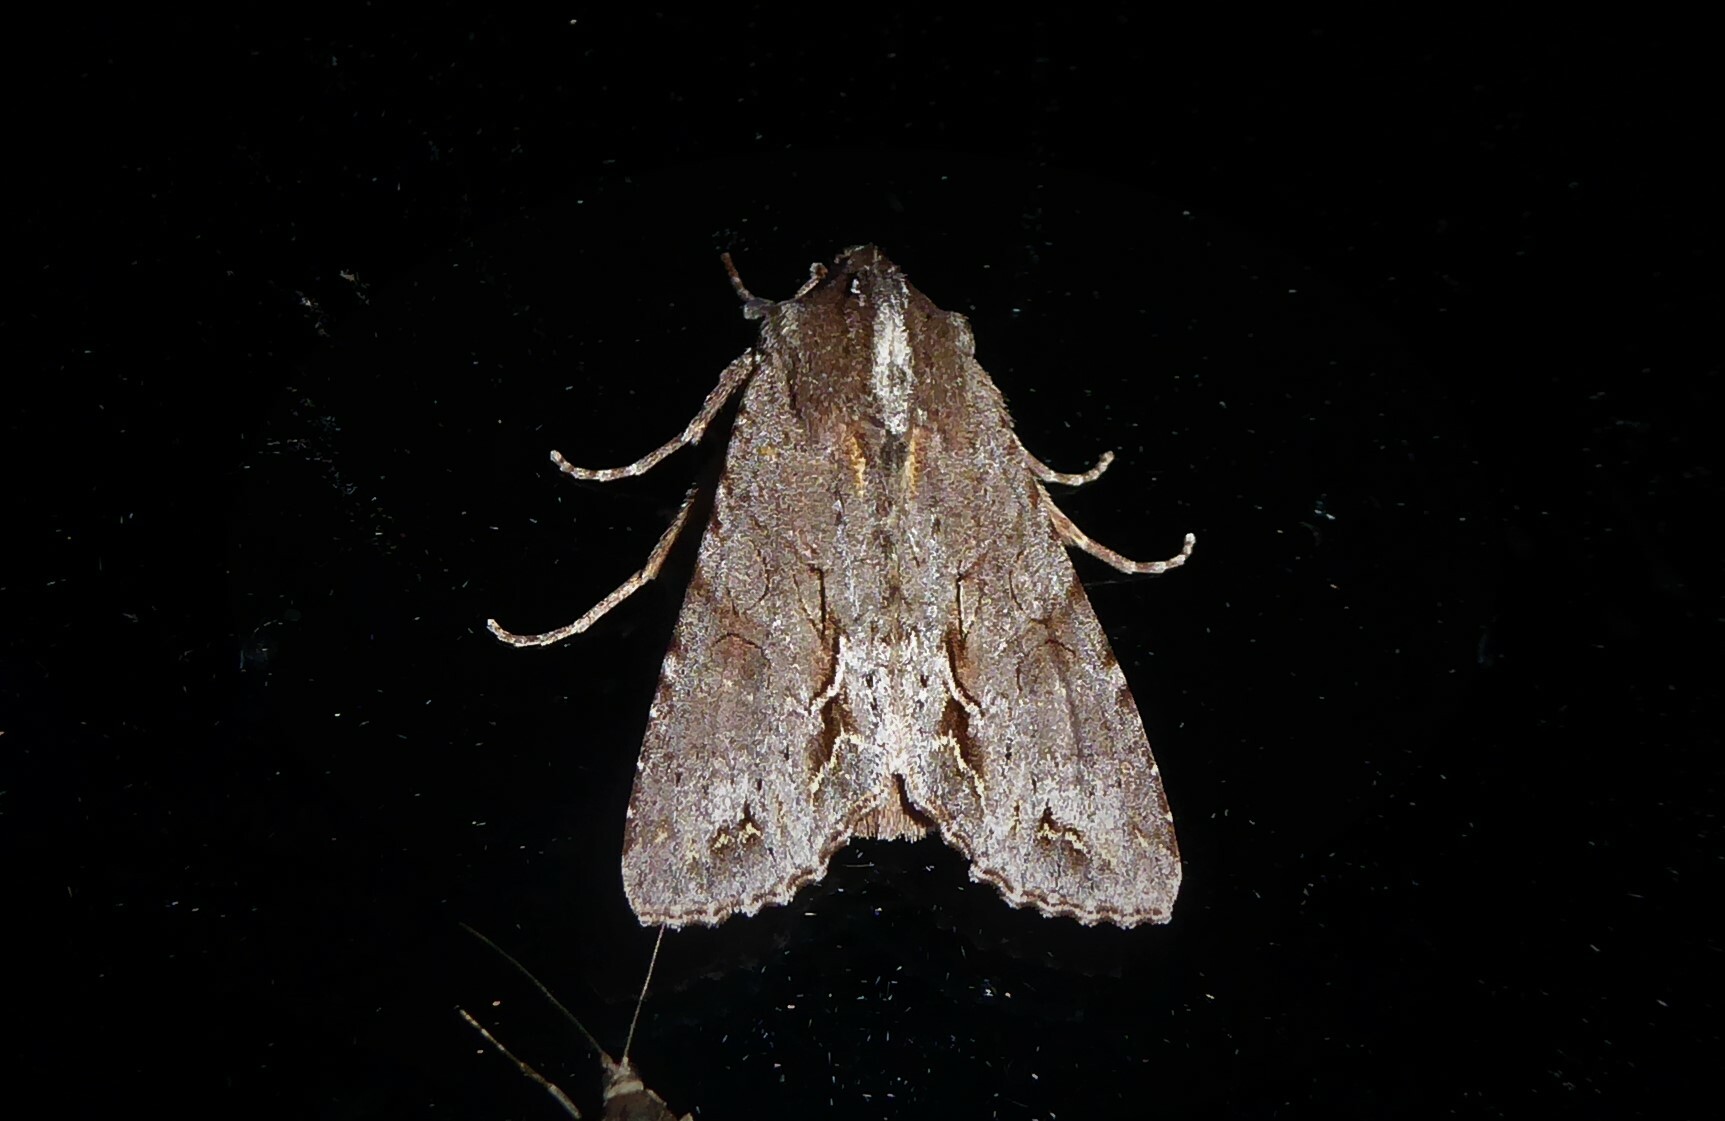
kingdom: Animalia
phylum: Arthropoda
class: Insecta
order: Lepidoptera
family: Noctuidae
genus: Ichneutica
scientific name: Ichneutica
